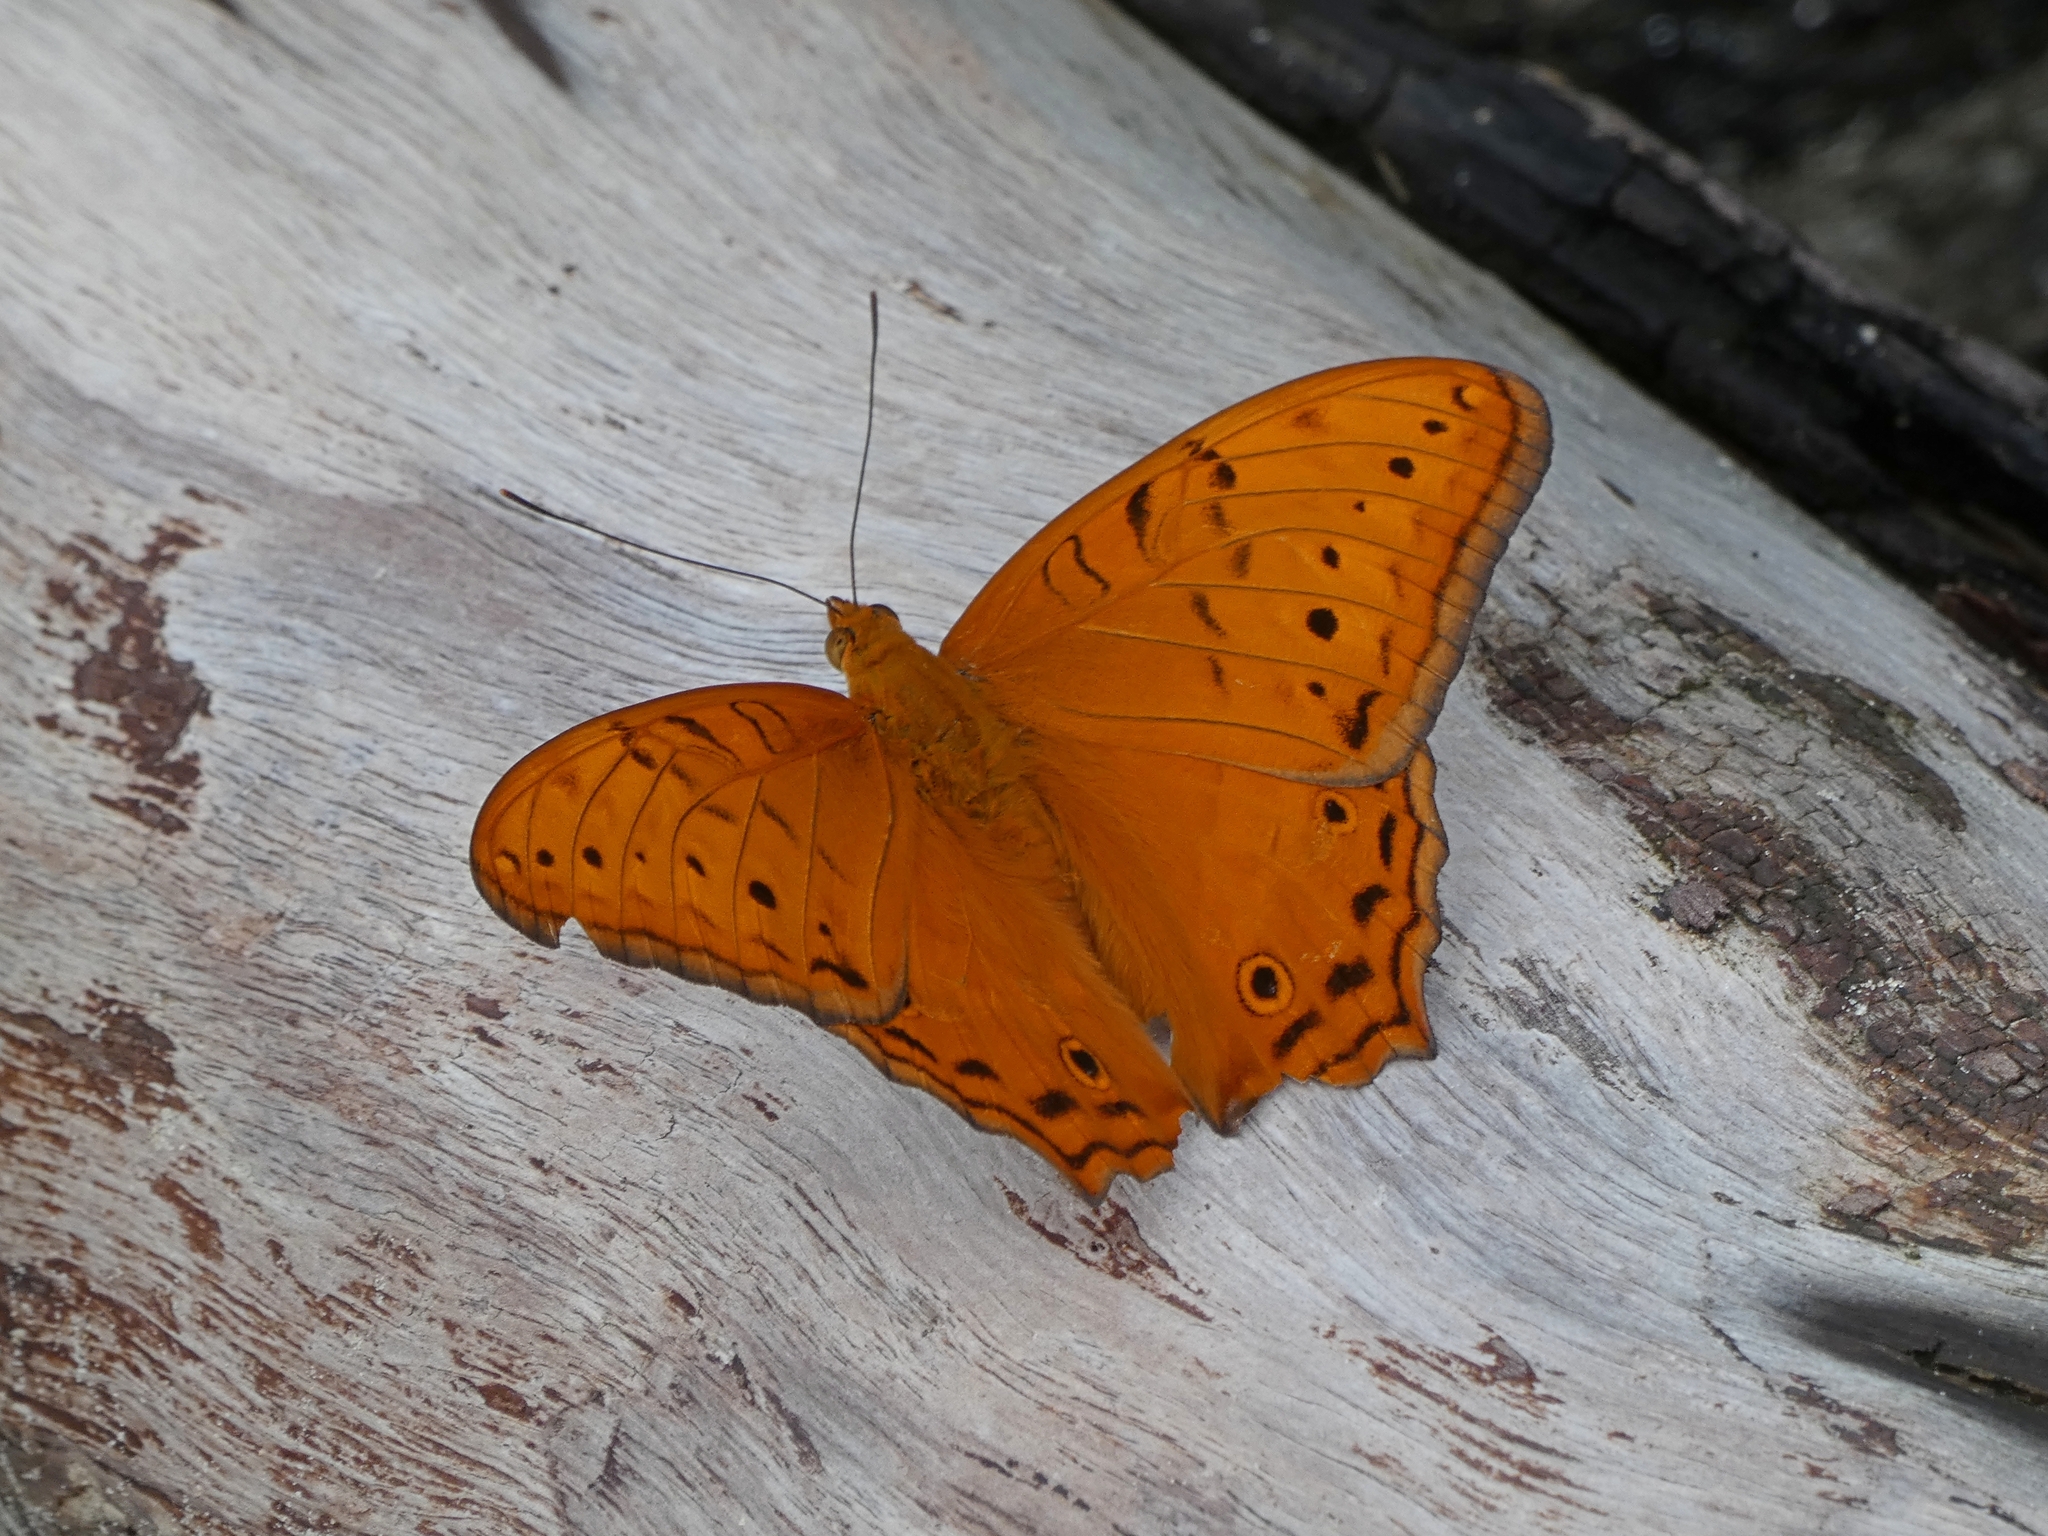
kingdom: Animalia
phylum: Arthropoda
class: Insecta
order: Lepidoptera
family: Nymphalidae
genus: Vindula
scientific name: Vindula arsinoe
